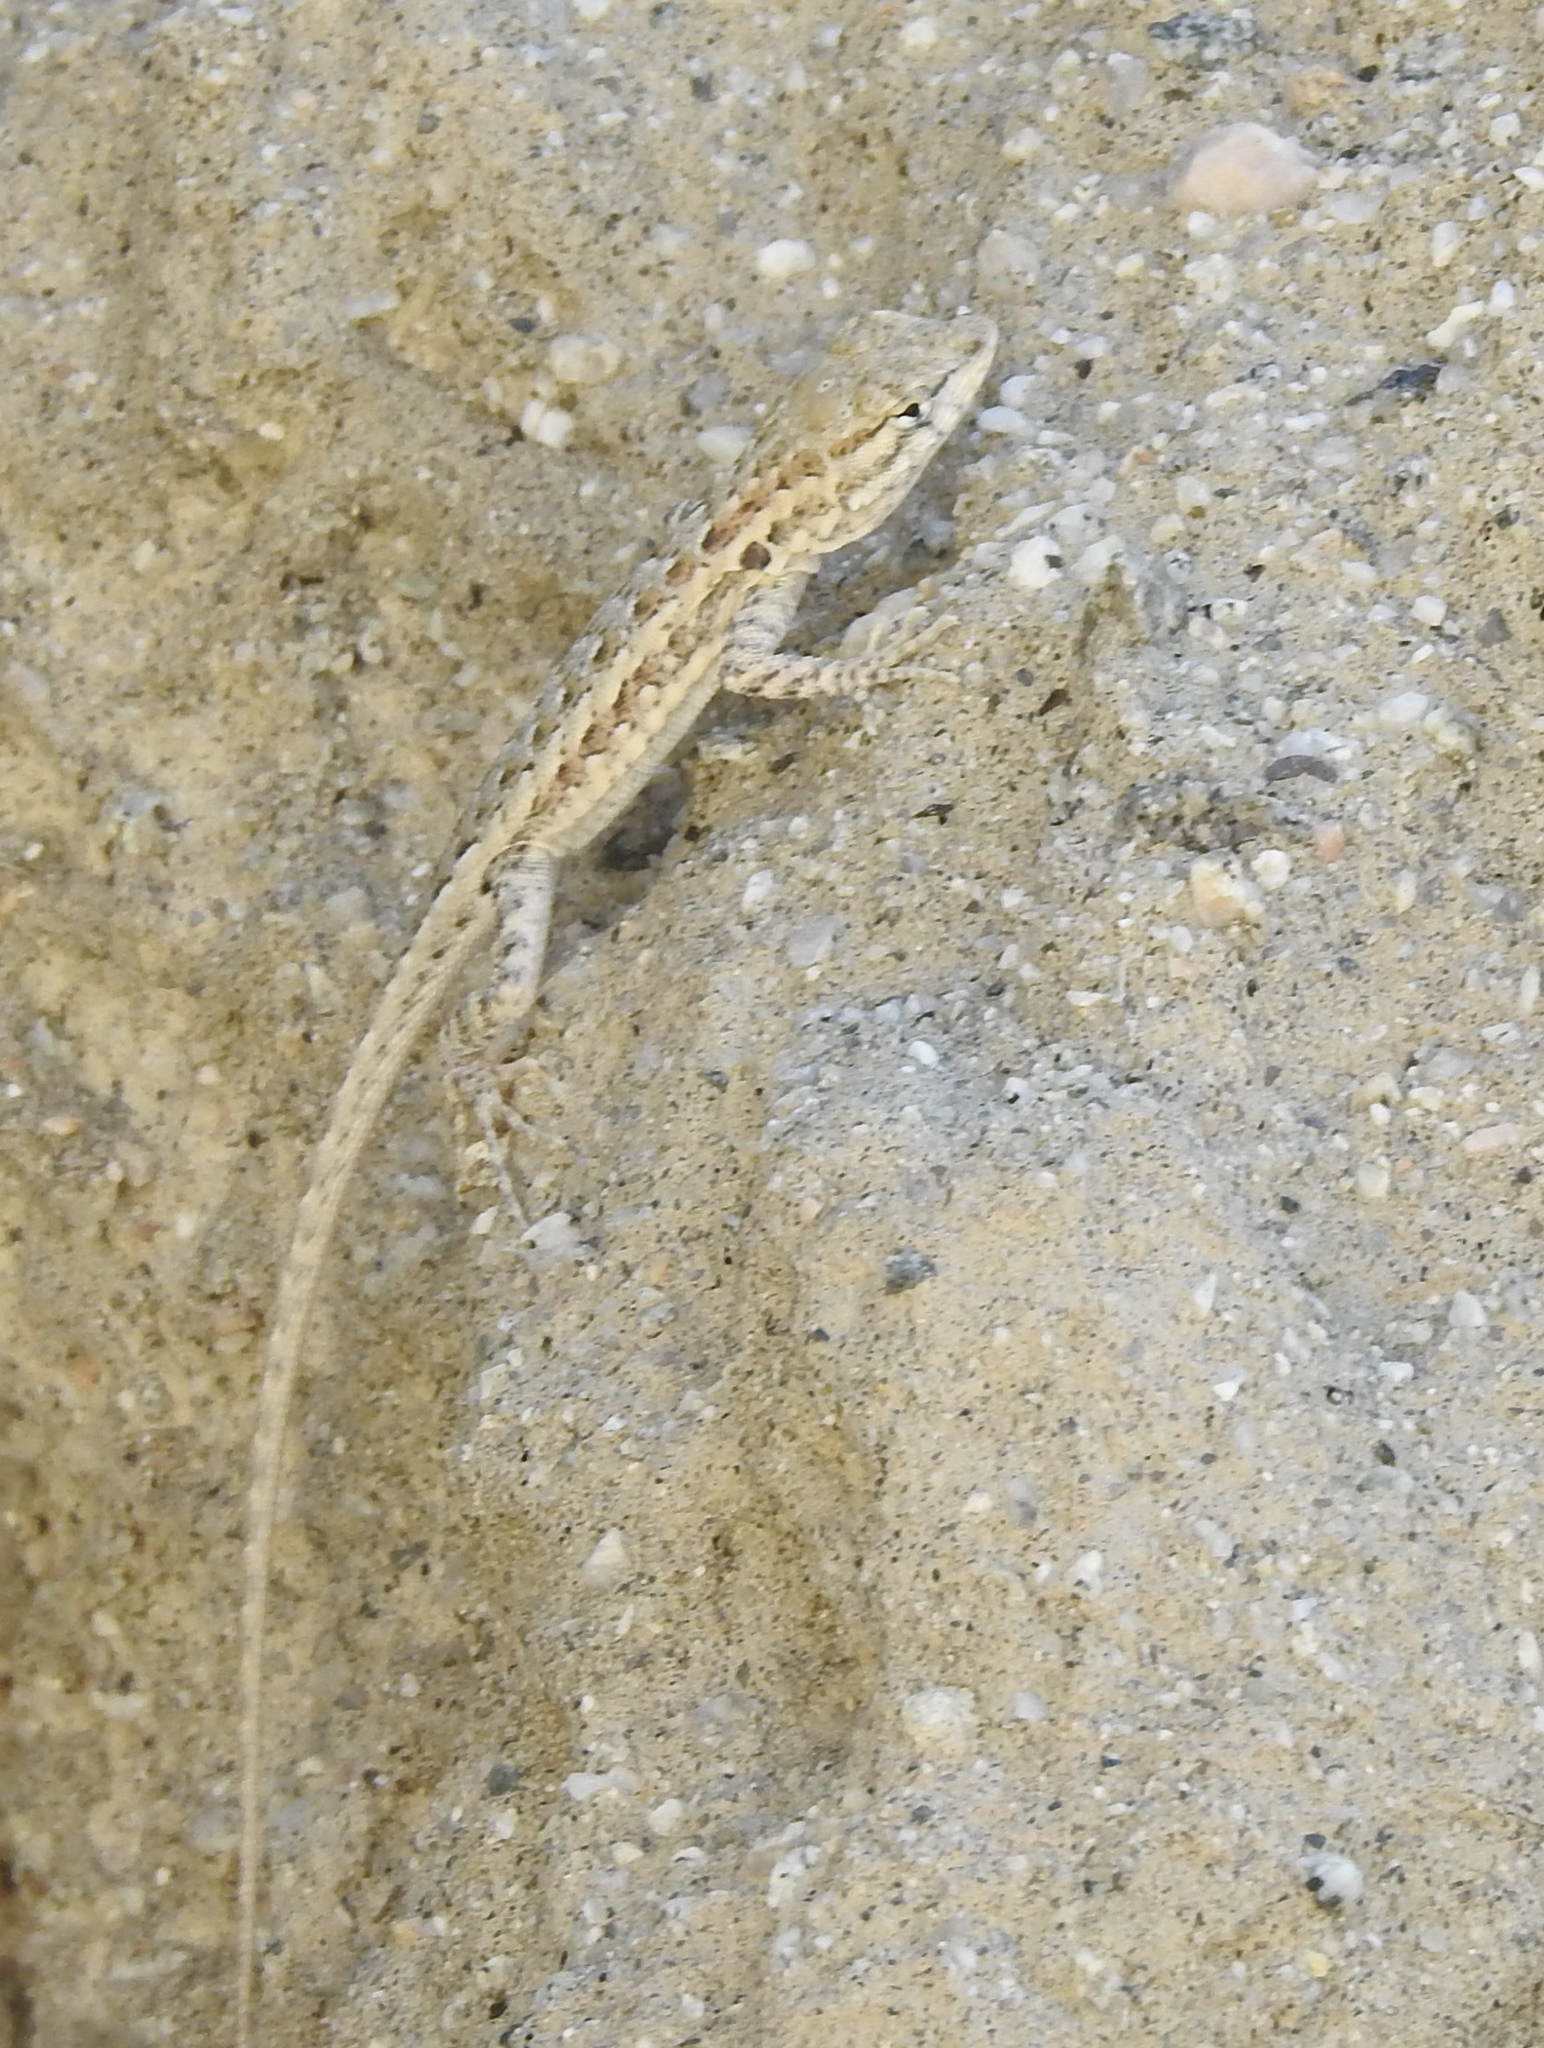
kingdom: Animalia
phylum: Chordata
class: Squamata
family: Phrynosomatidae
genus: Uta
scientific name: Uta stansburiana
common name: Side-blotched lizard
